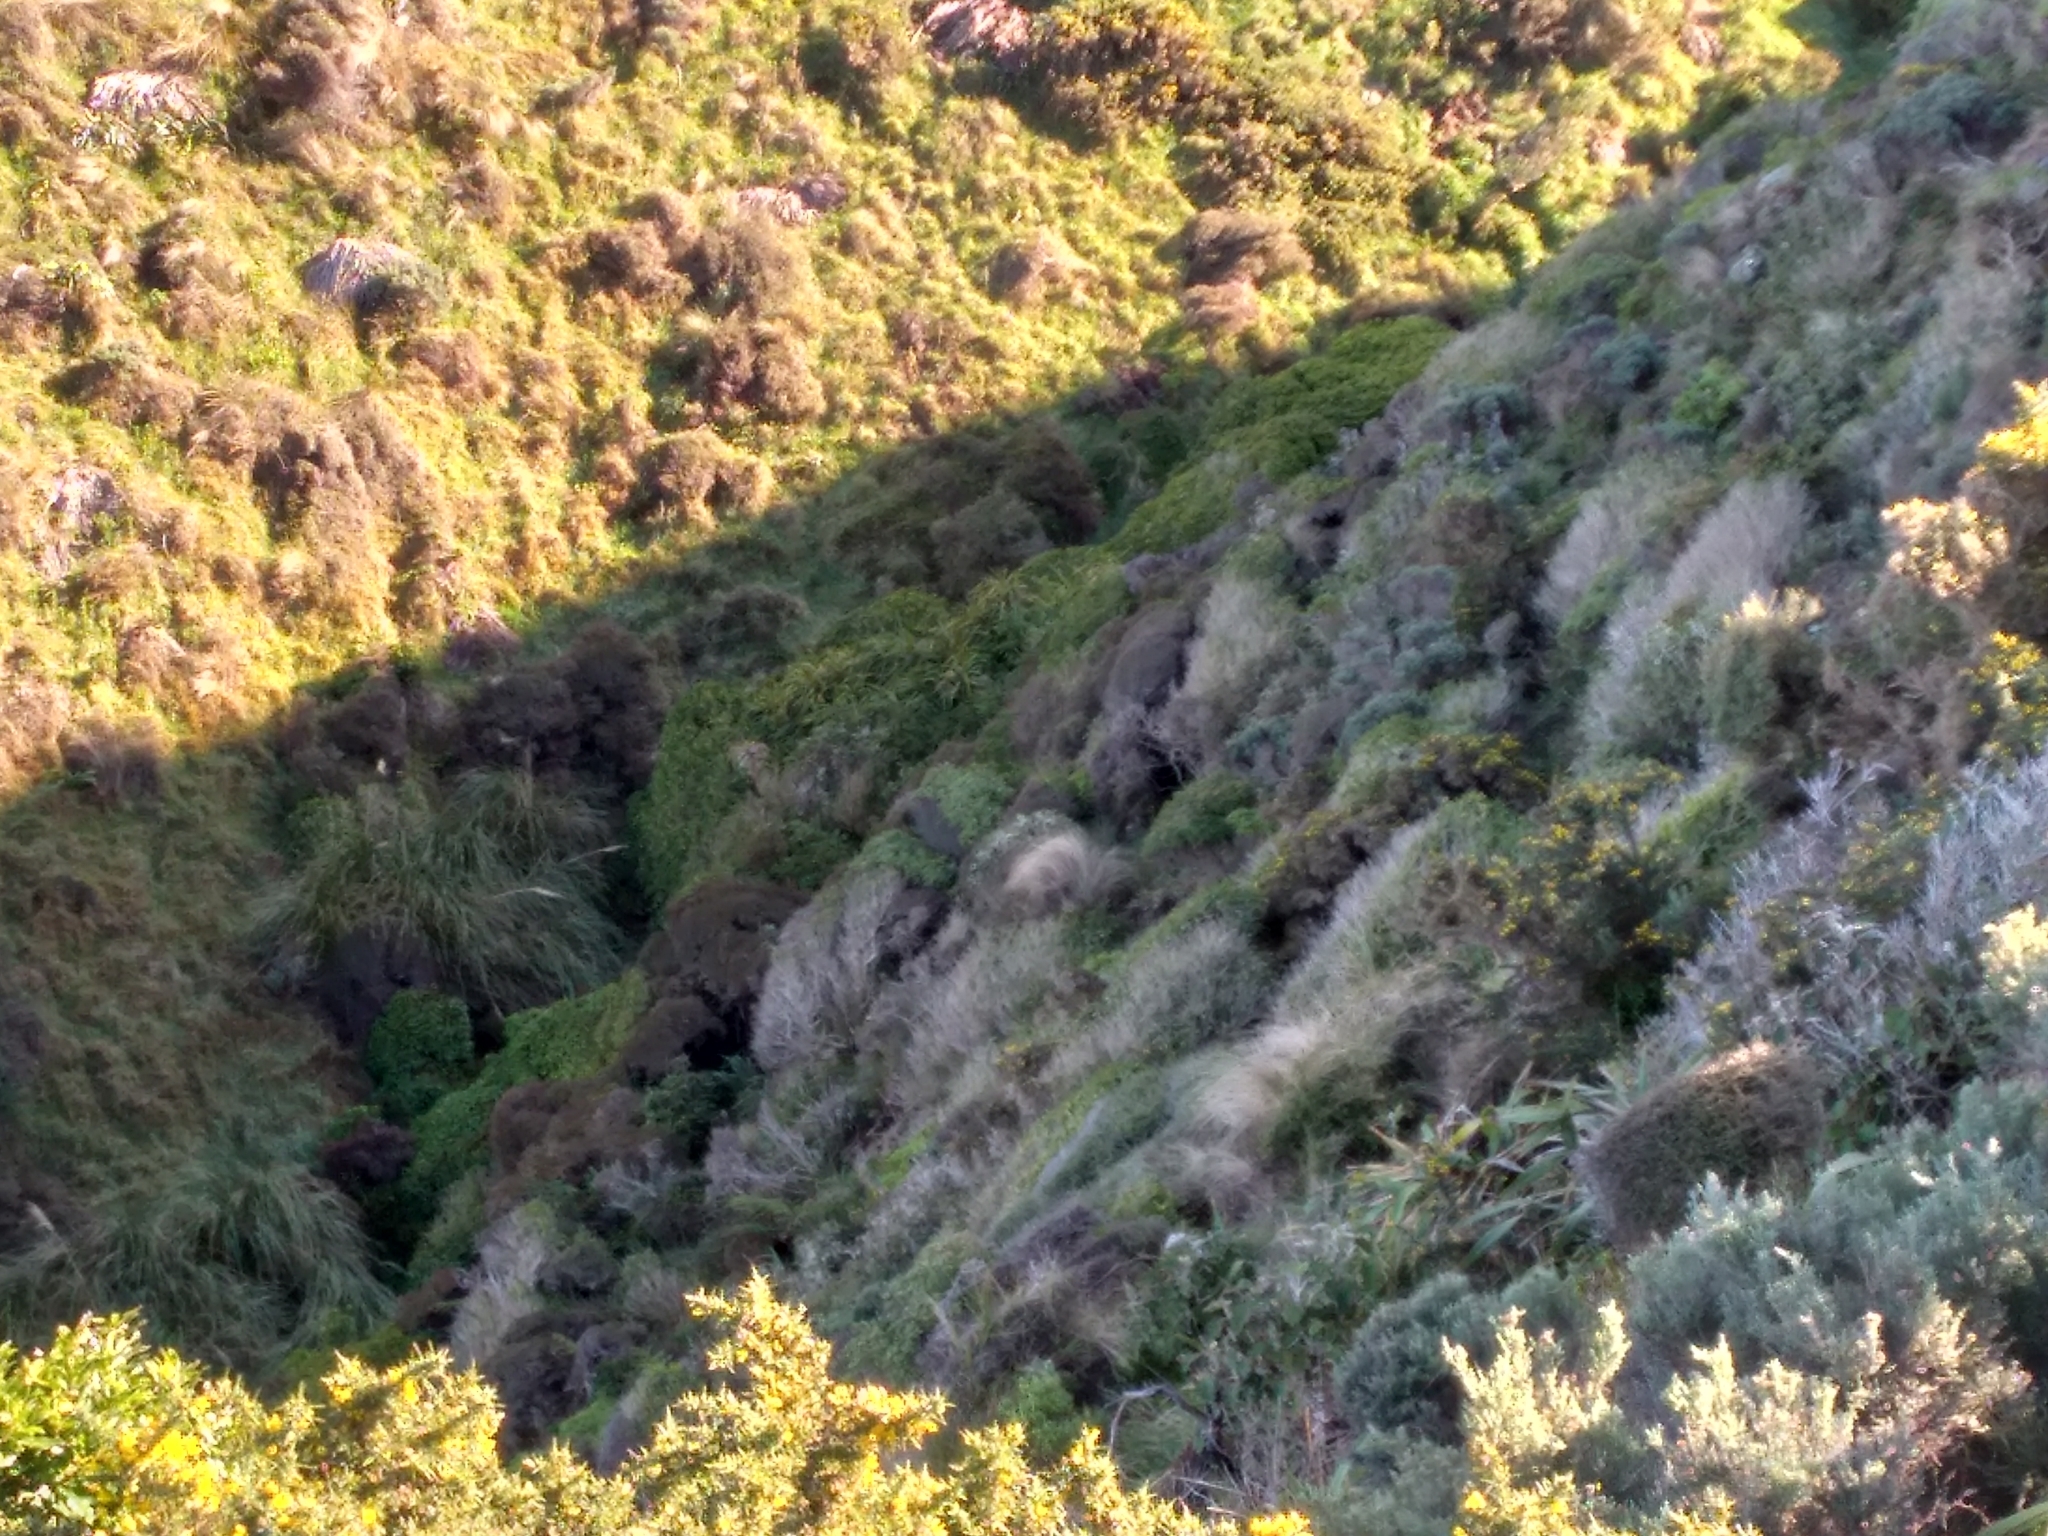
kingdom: Plantae
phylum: Tracheophyta
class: Liliopsida
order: Pandanales
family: Pandanaceae
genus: Freycinetia
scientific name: Freycinetia banksii
